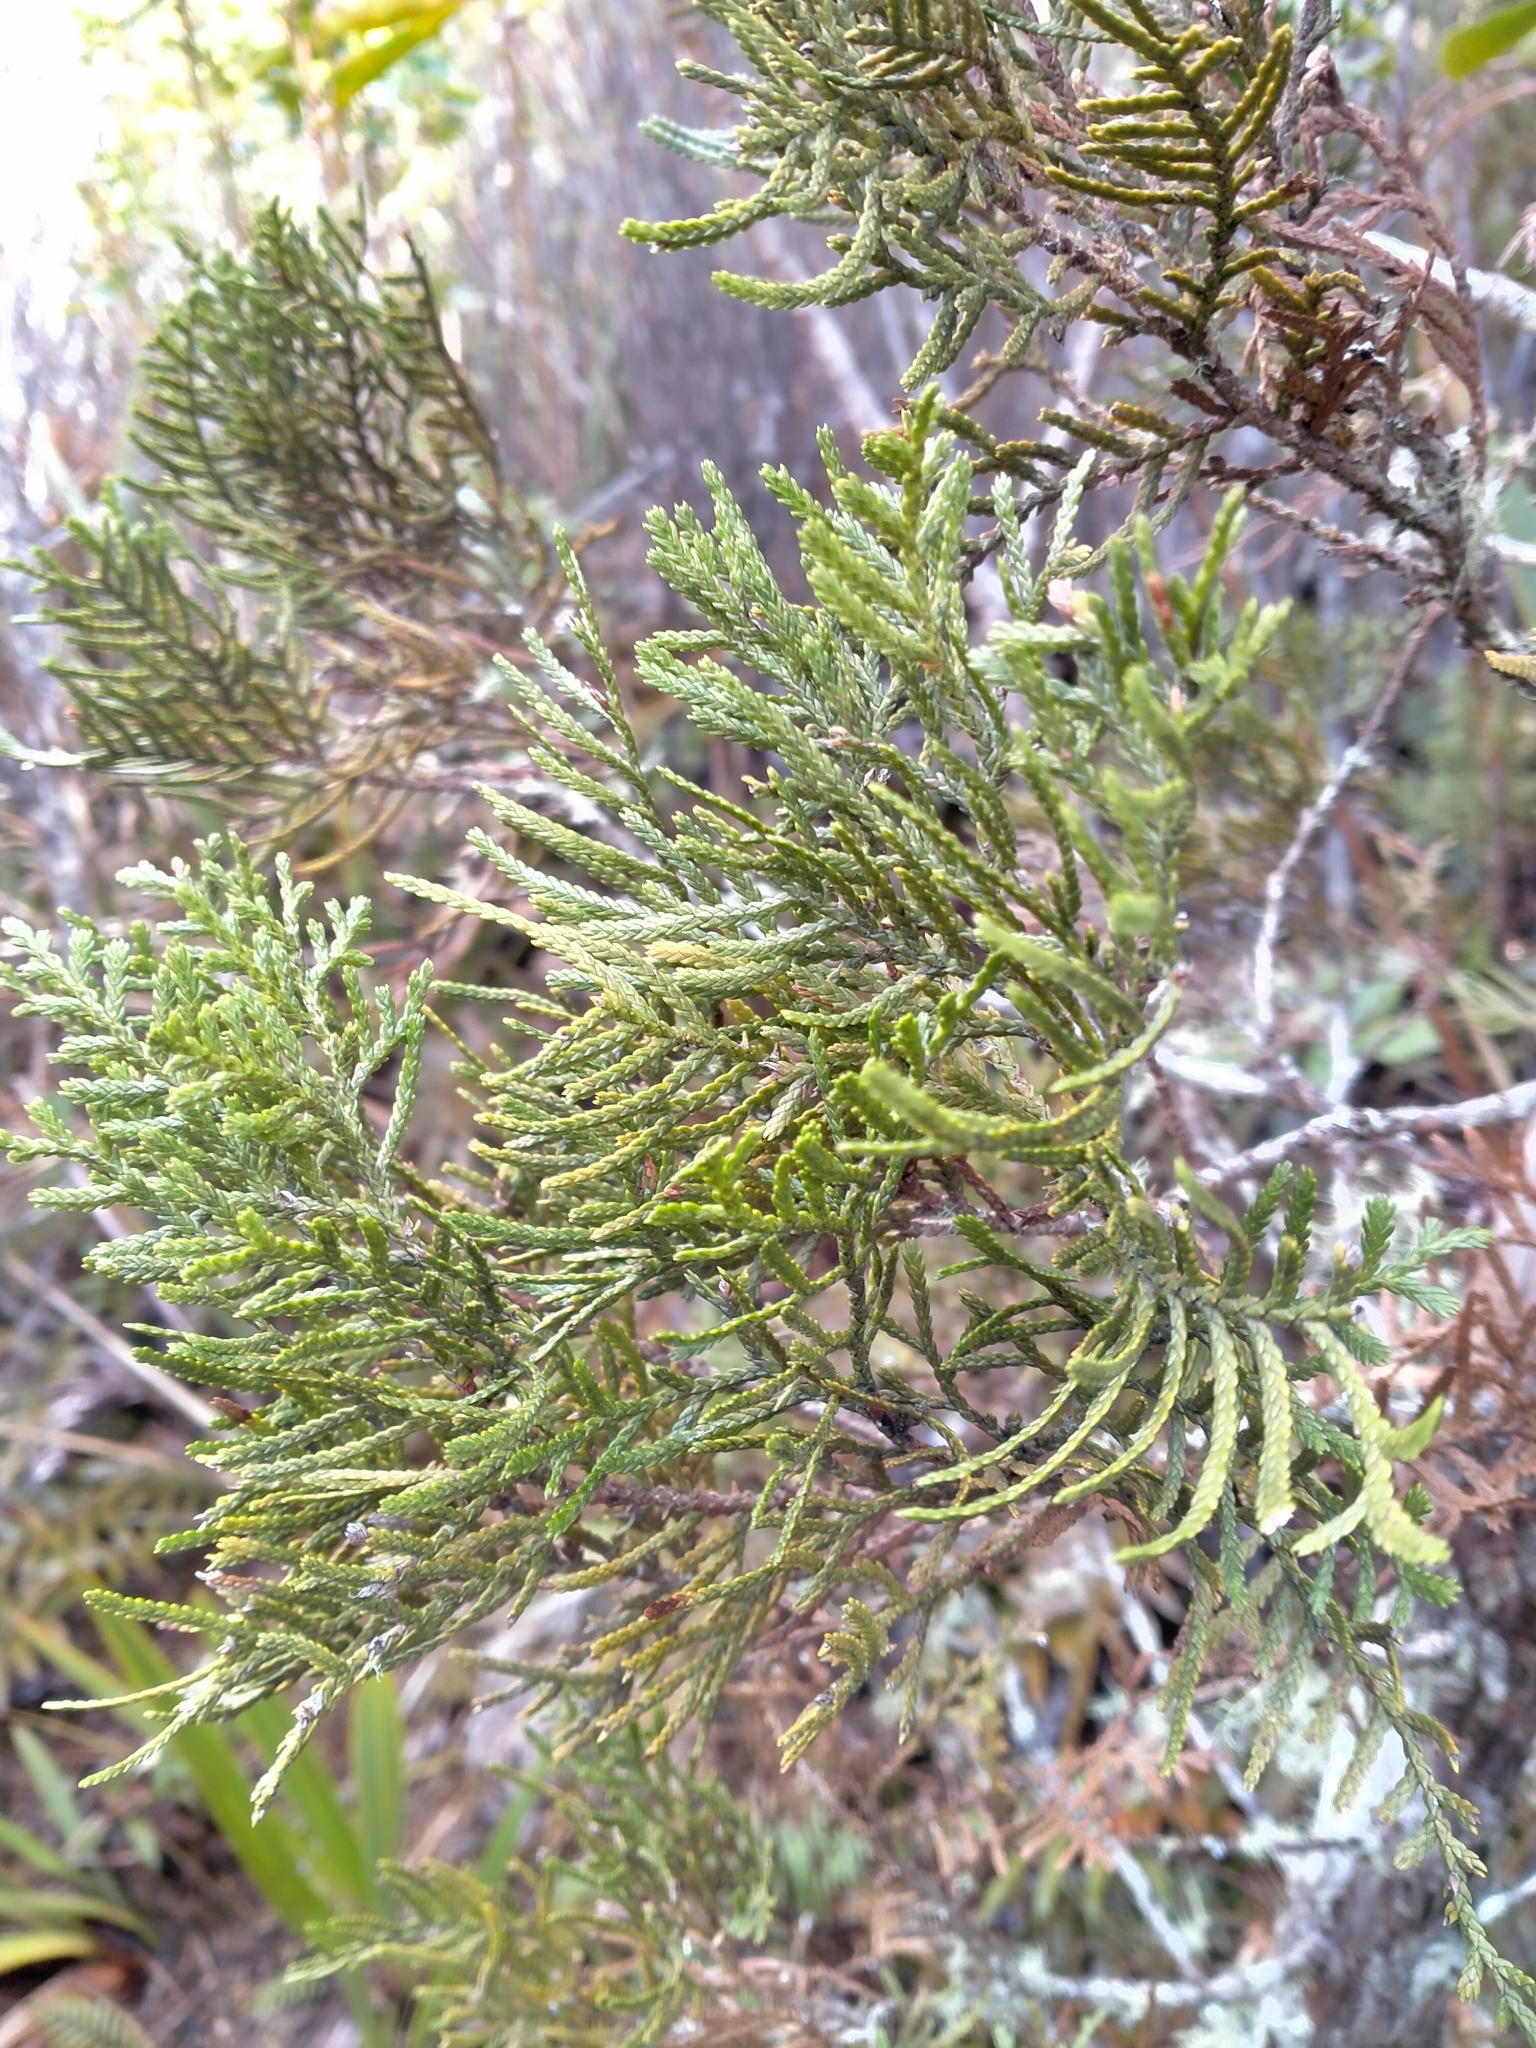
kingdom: Plantae
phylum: Tracheophyta
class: Pinopsida
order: Pinales
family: Cupressaceae
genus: Libocedrus
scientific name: Libocedrus bidwillii
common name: Cedar
